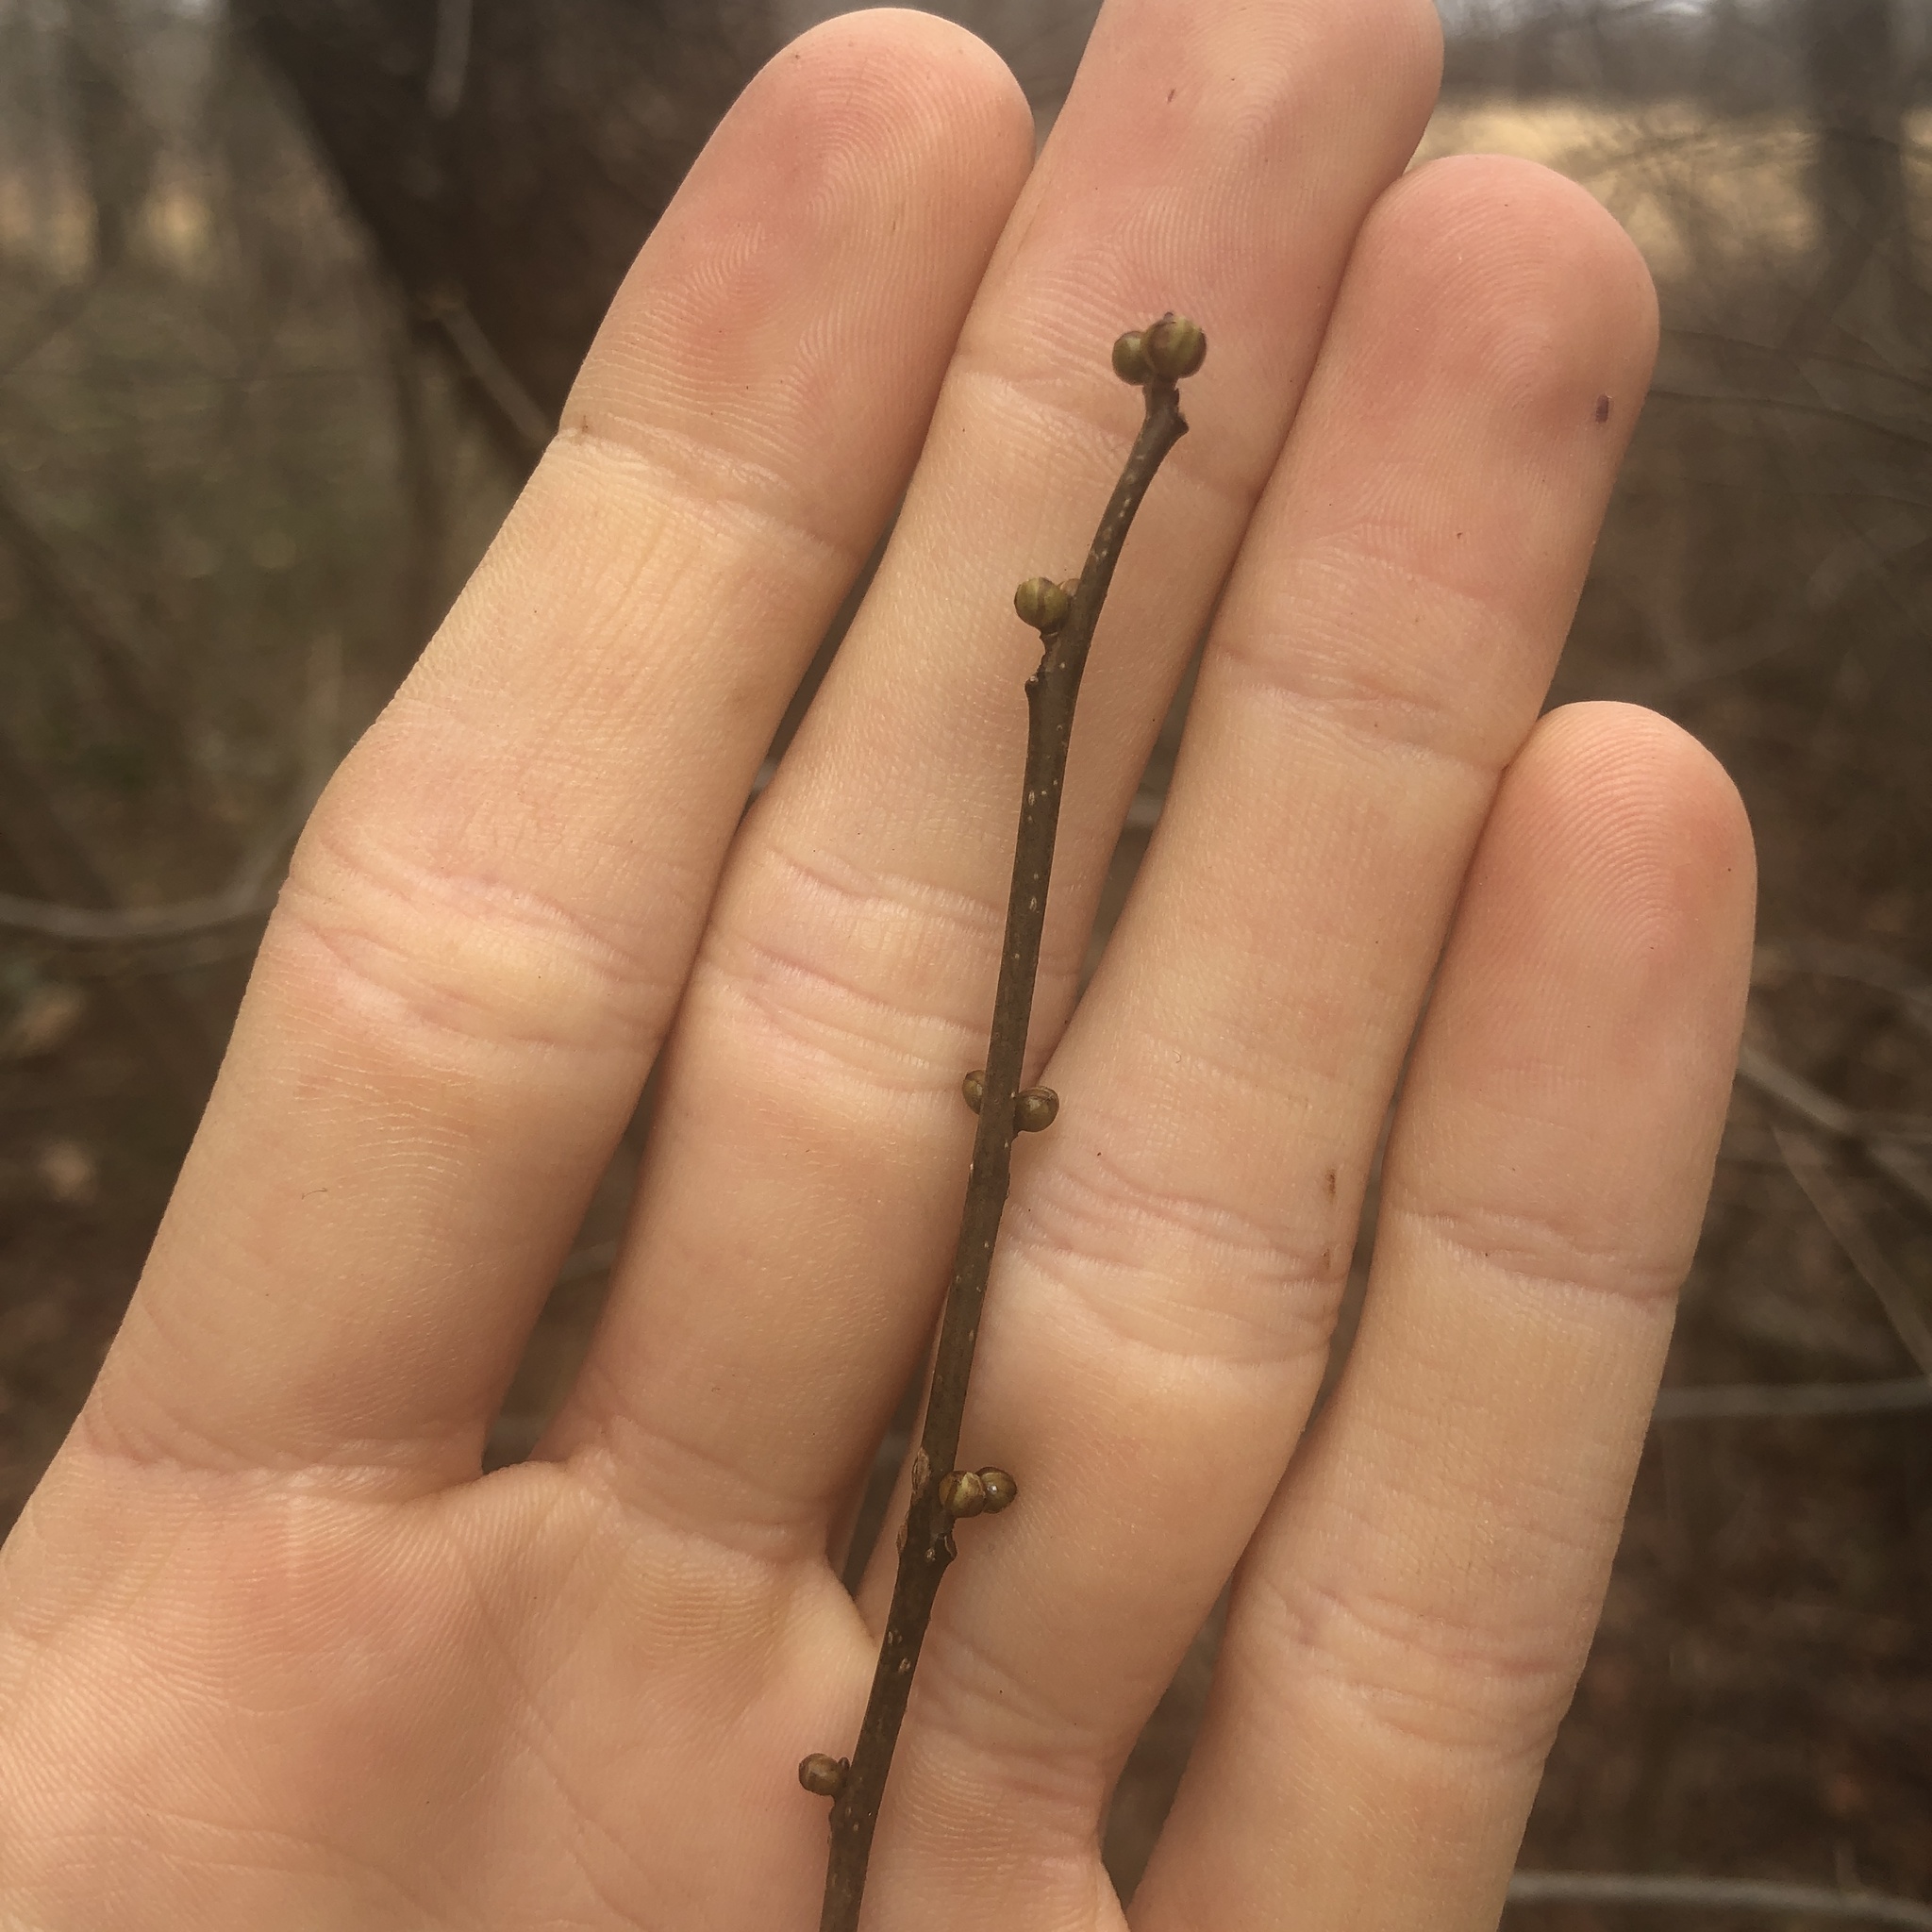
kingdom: Plantae
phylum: Tracheophyta
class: Magnoliopsida
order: Laurales
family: Lauraceae
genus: Lindera
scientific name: Lindera benzoin
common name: Spicebush
